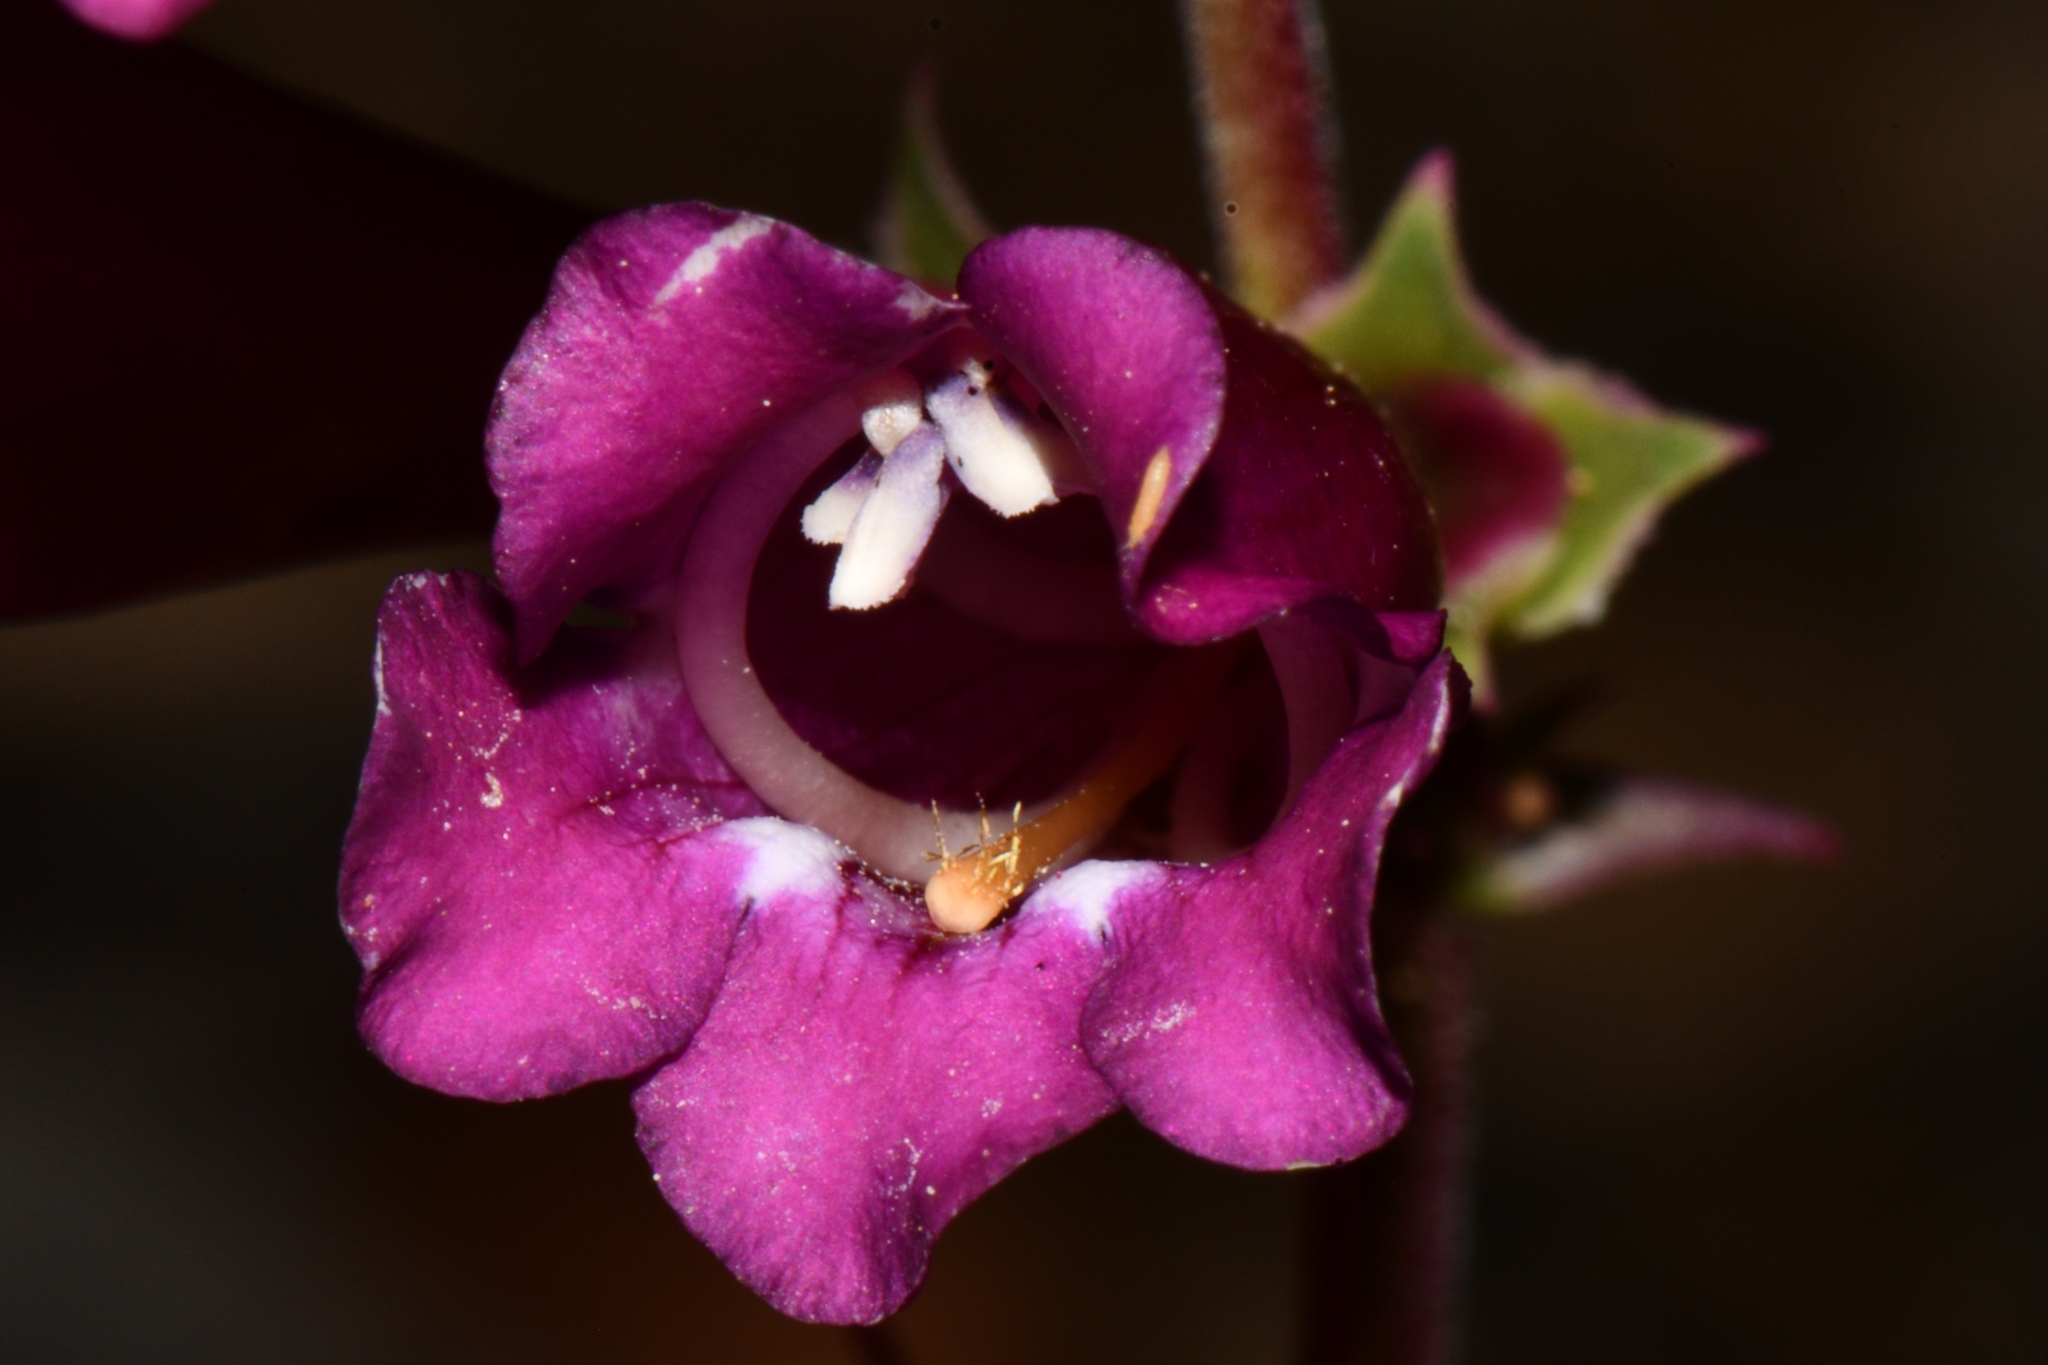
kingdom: Plantae
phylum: Tracheophyta
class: Magnoliopsida
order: Lamiales
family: Plantaginaceae
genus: Penstemon
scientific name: Penstemon jonesii
